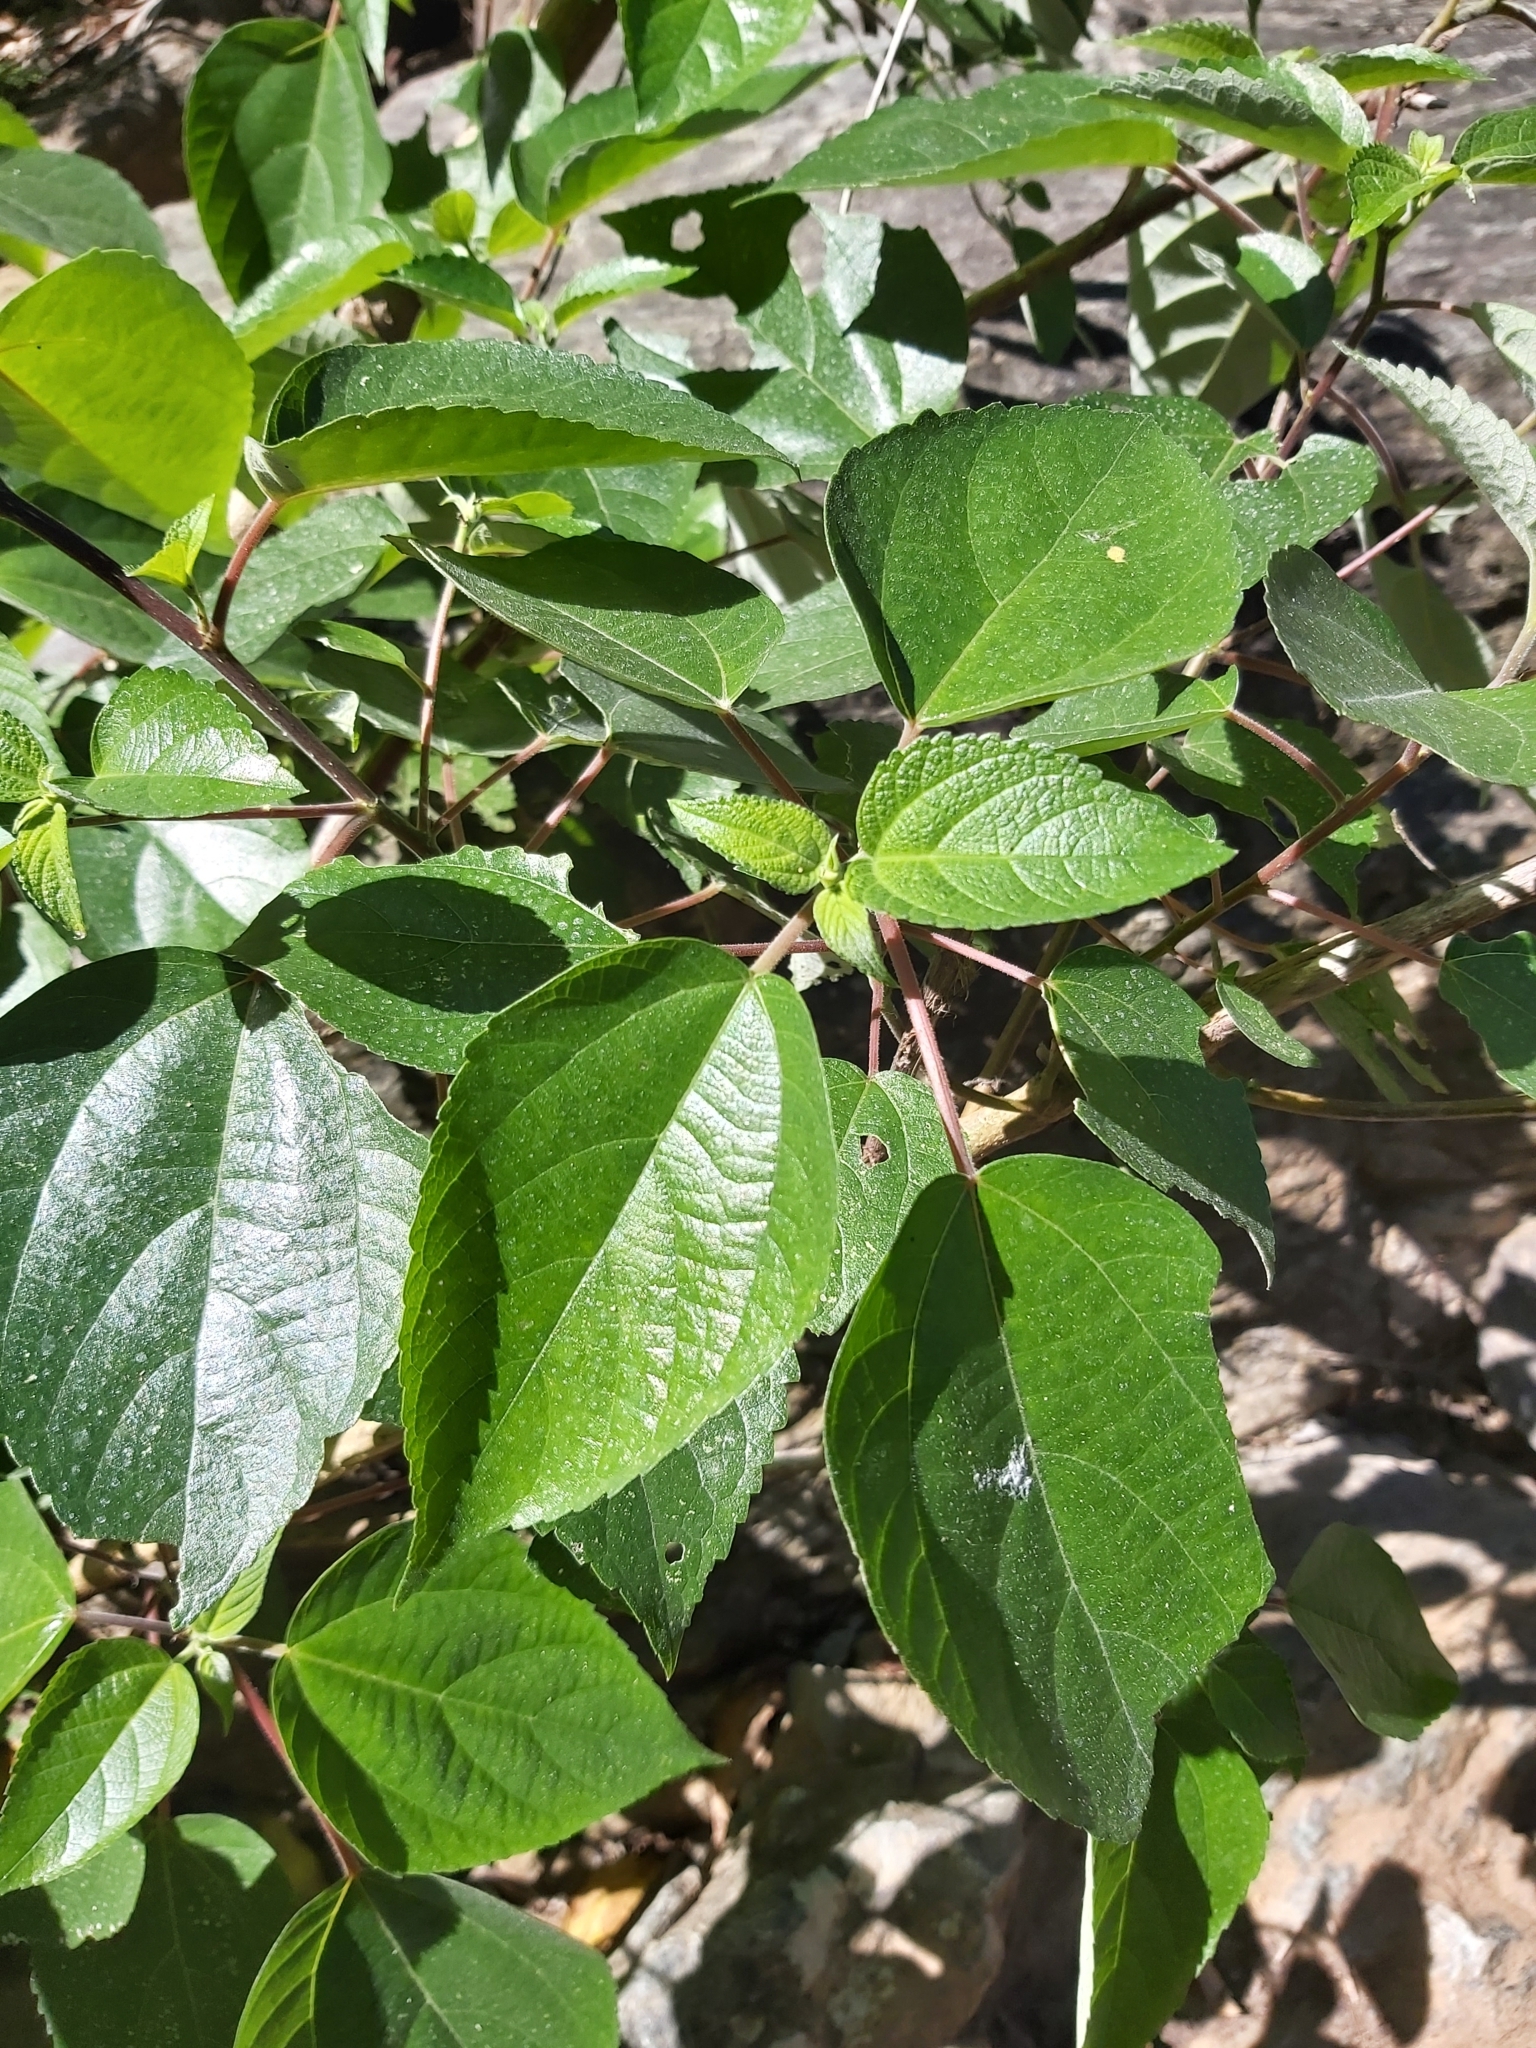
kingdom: Plantae
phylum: Tracheophyta
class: Magnoliopsida
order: Rosales
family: Urticaceae
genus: Pipturus
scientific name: Pipturus argenteus
